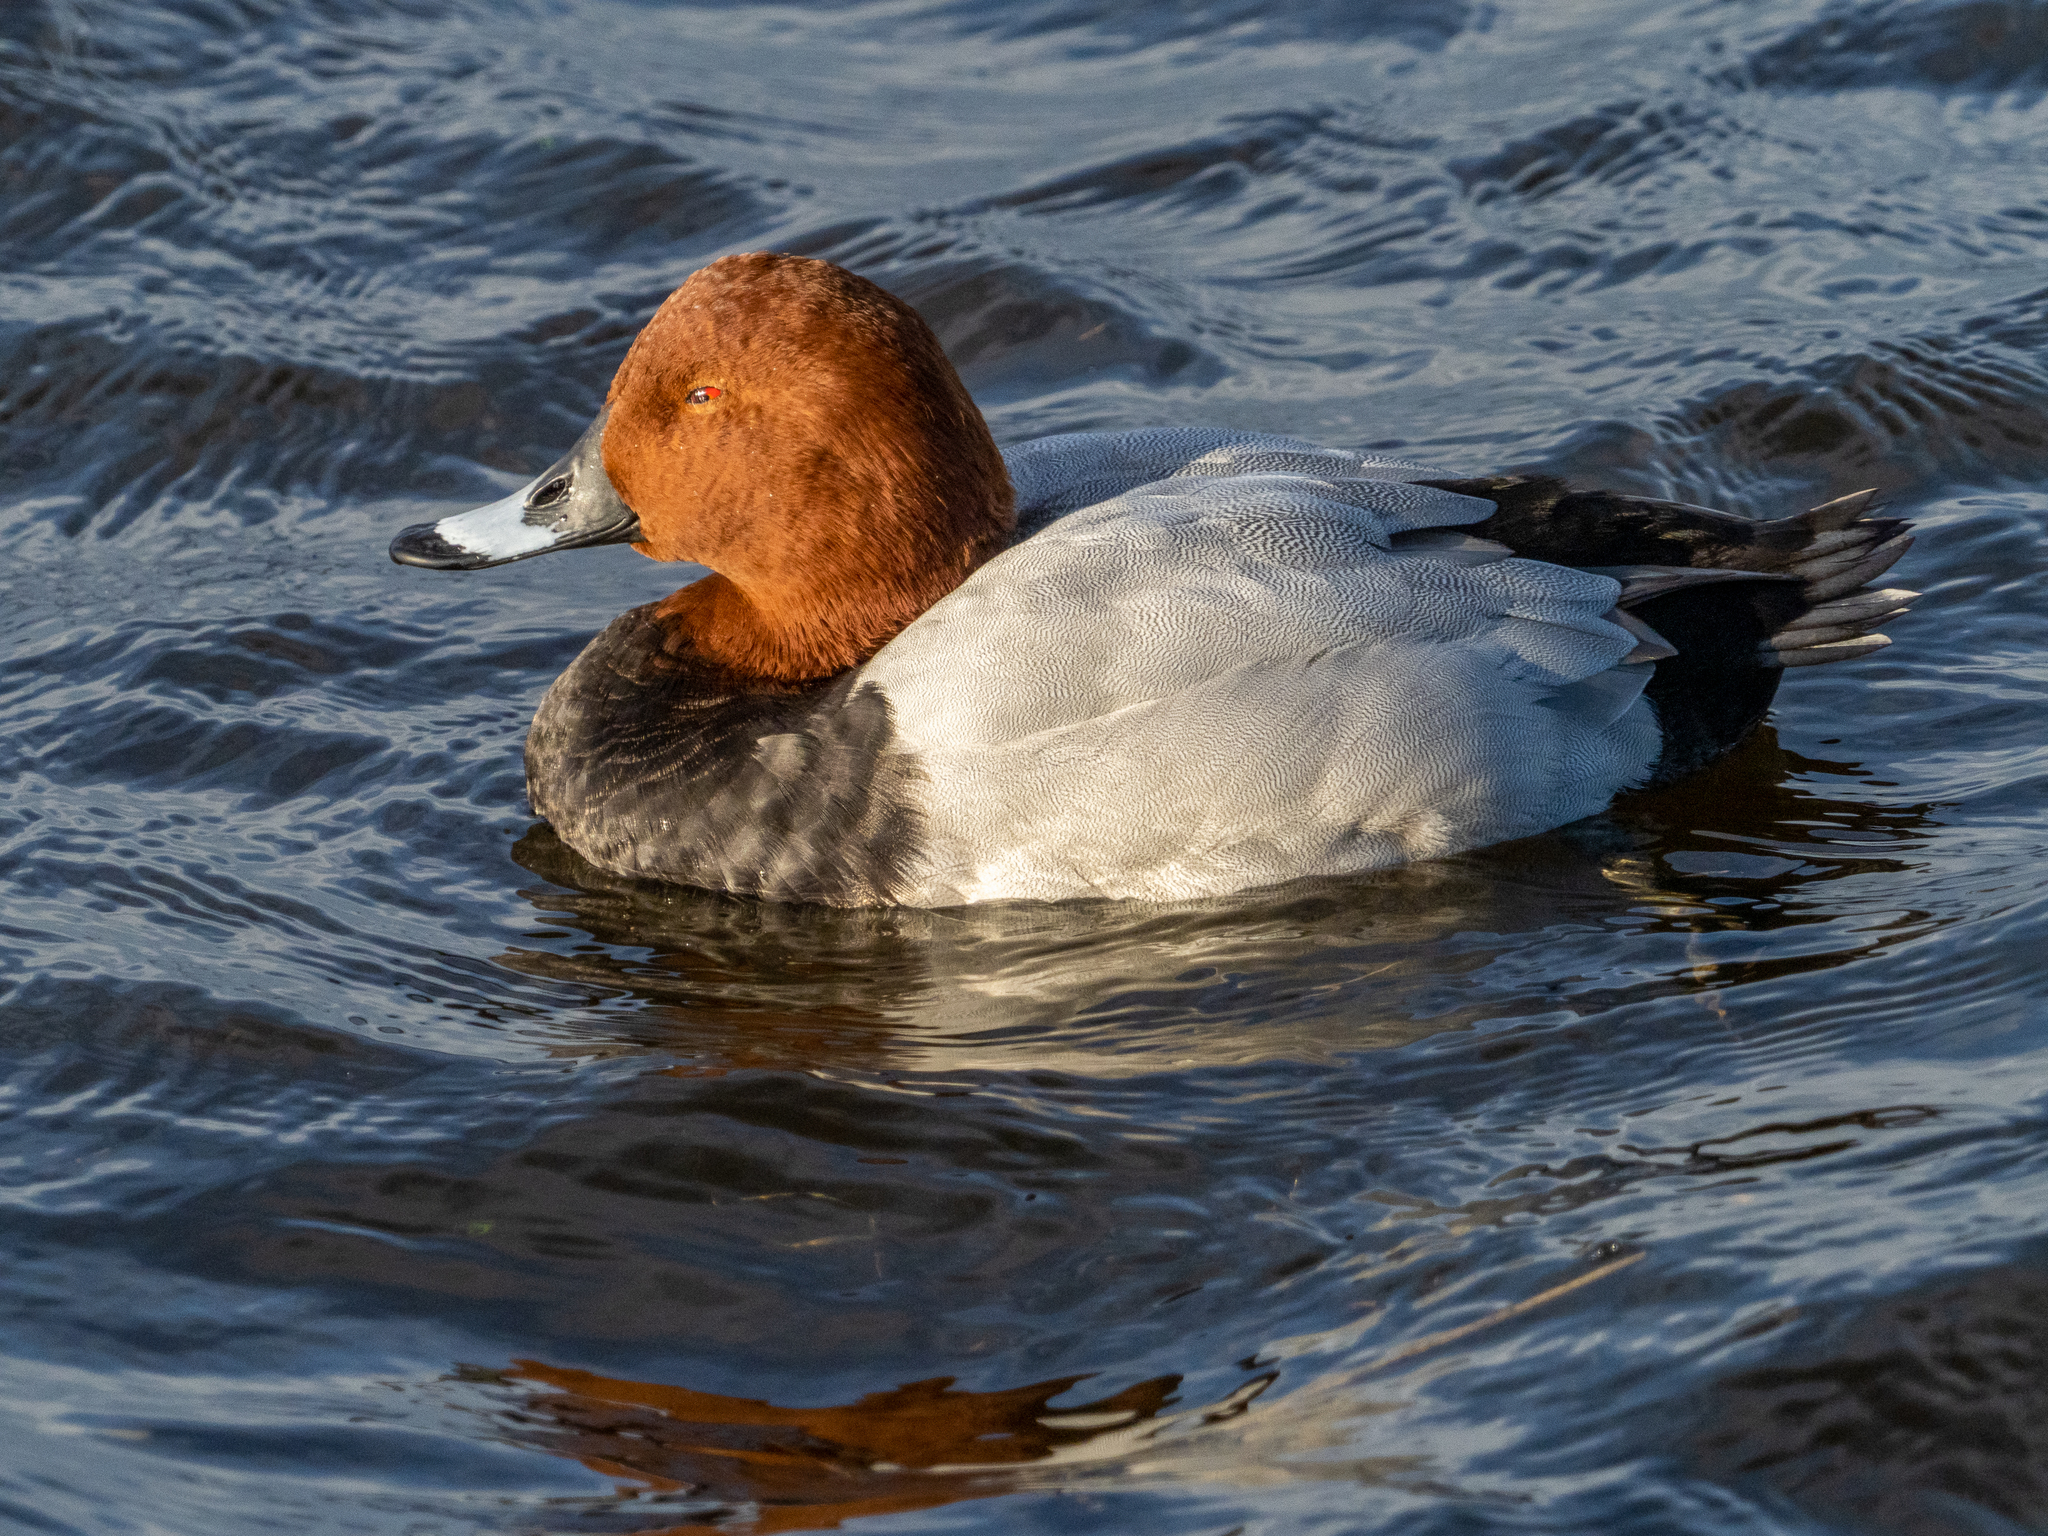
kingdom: Animalia
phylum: Chordata
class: Aves
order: Anseriformes
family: Anatidae
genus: Aythya
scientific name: Aythya ferina
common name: Common pochard
